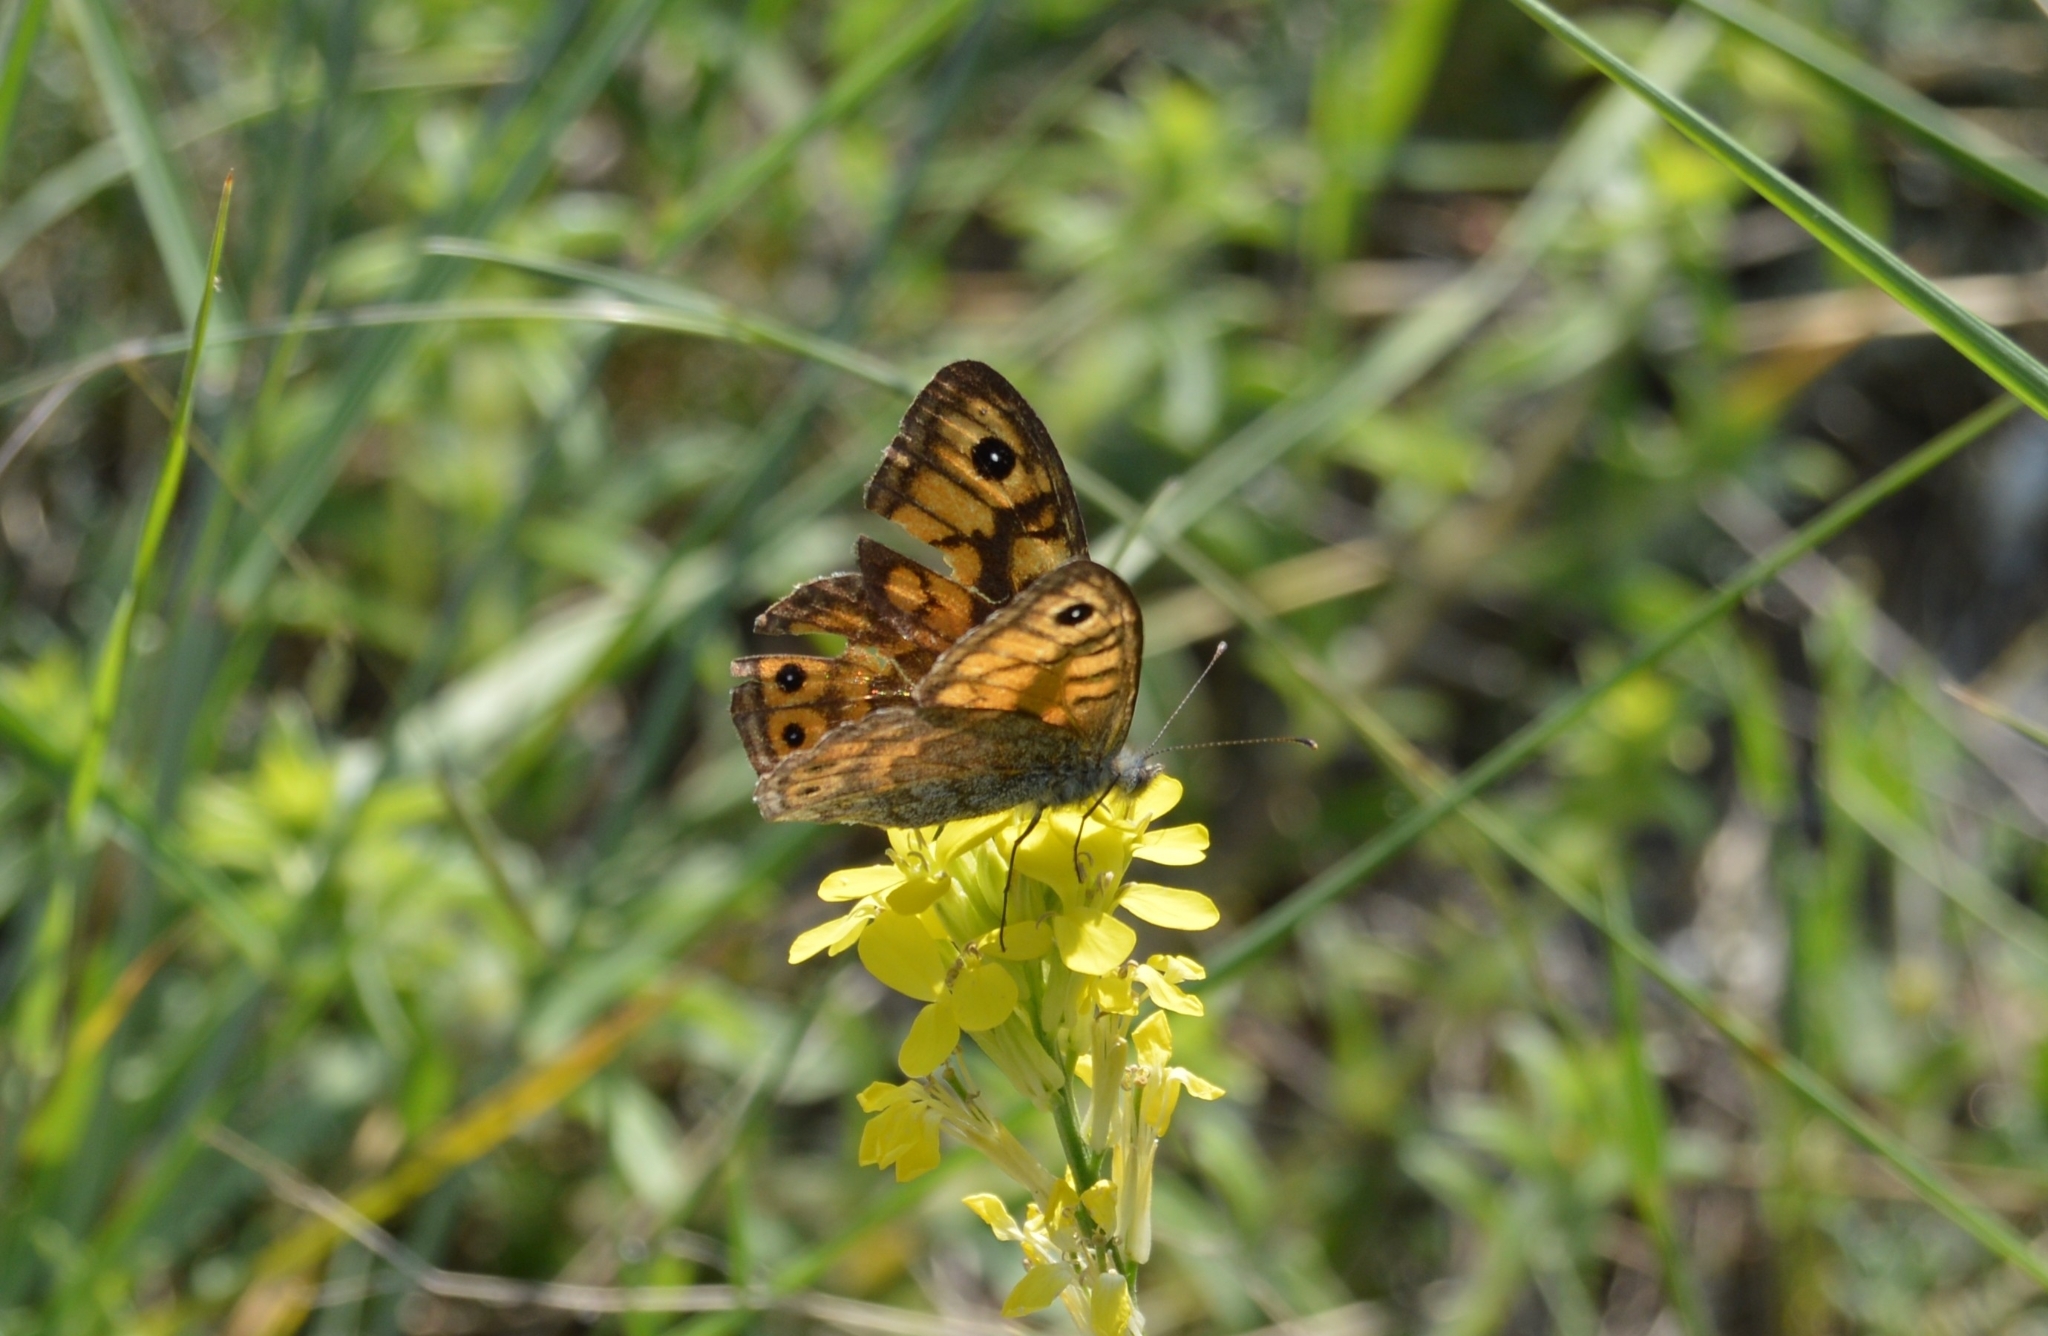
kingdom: Animalia
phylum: Arthropoda
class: Insecta
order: Lepidoptera
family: Nymphalidae
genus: Pararge
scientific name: Pararge Lasiommata megera
